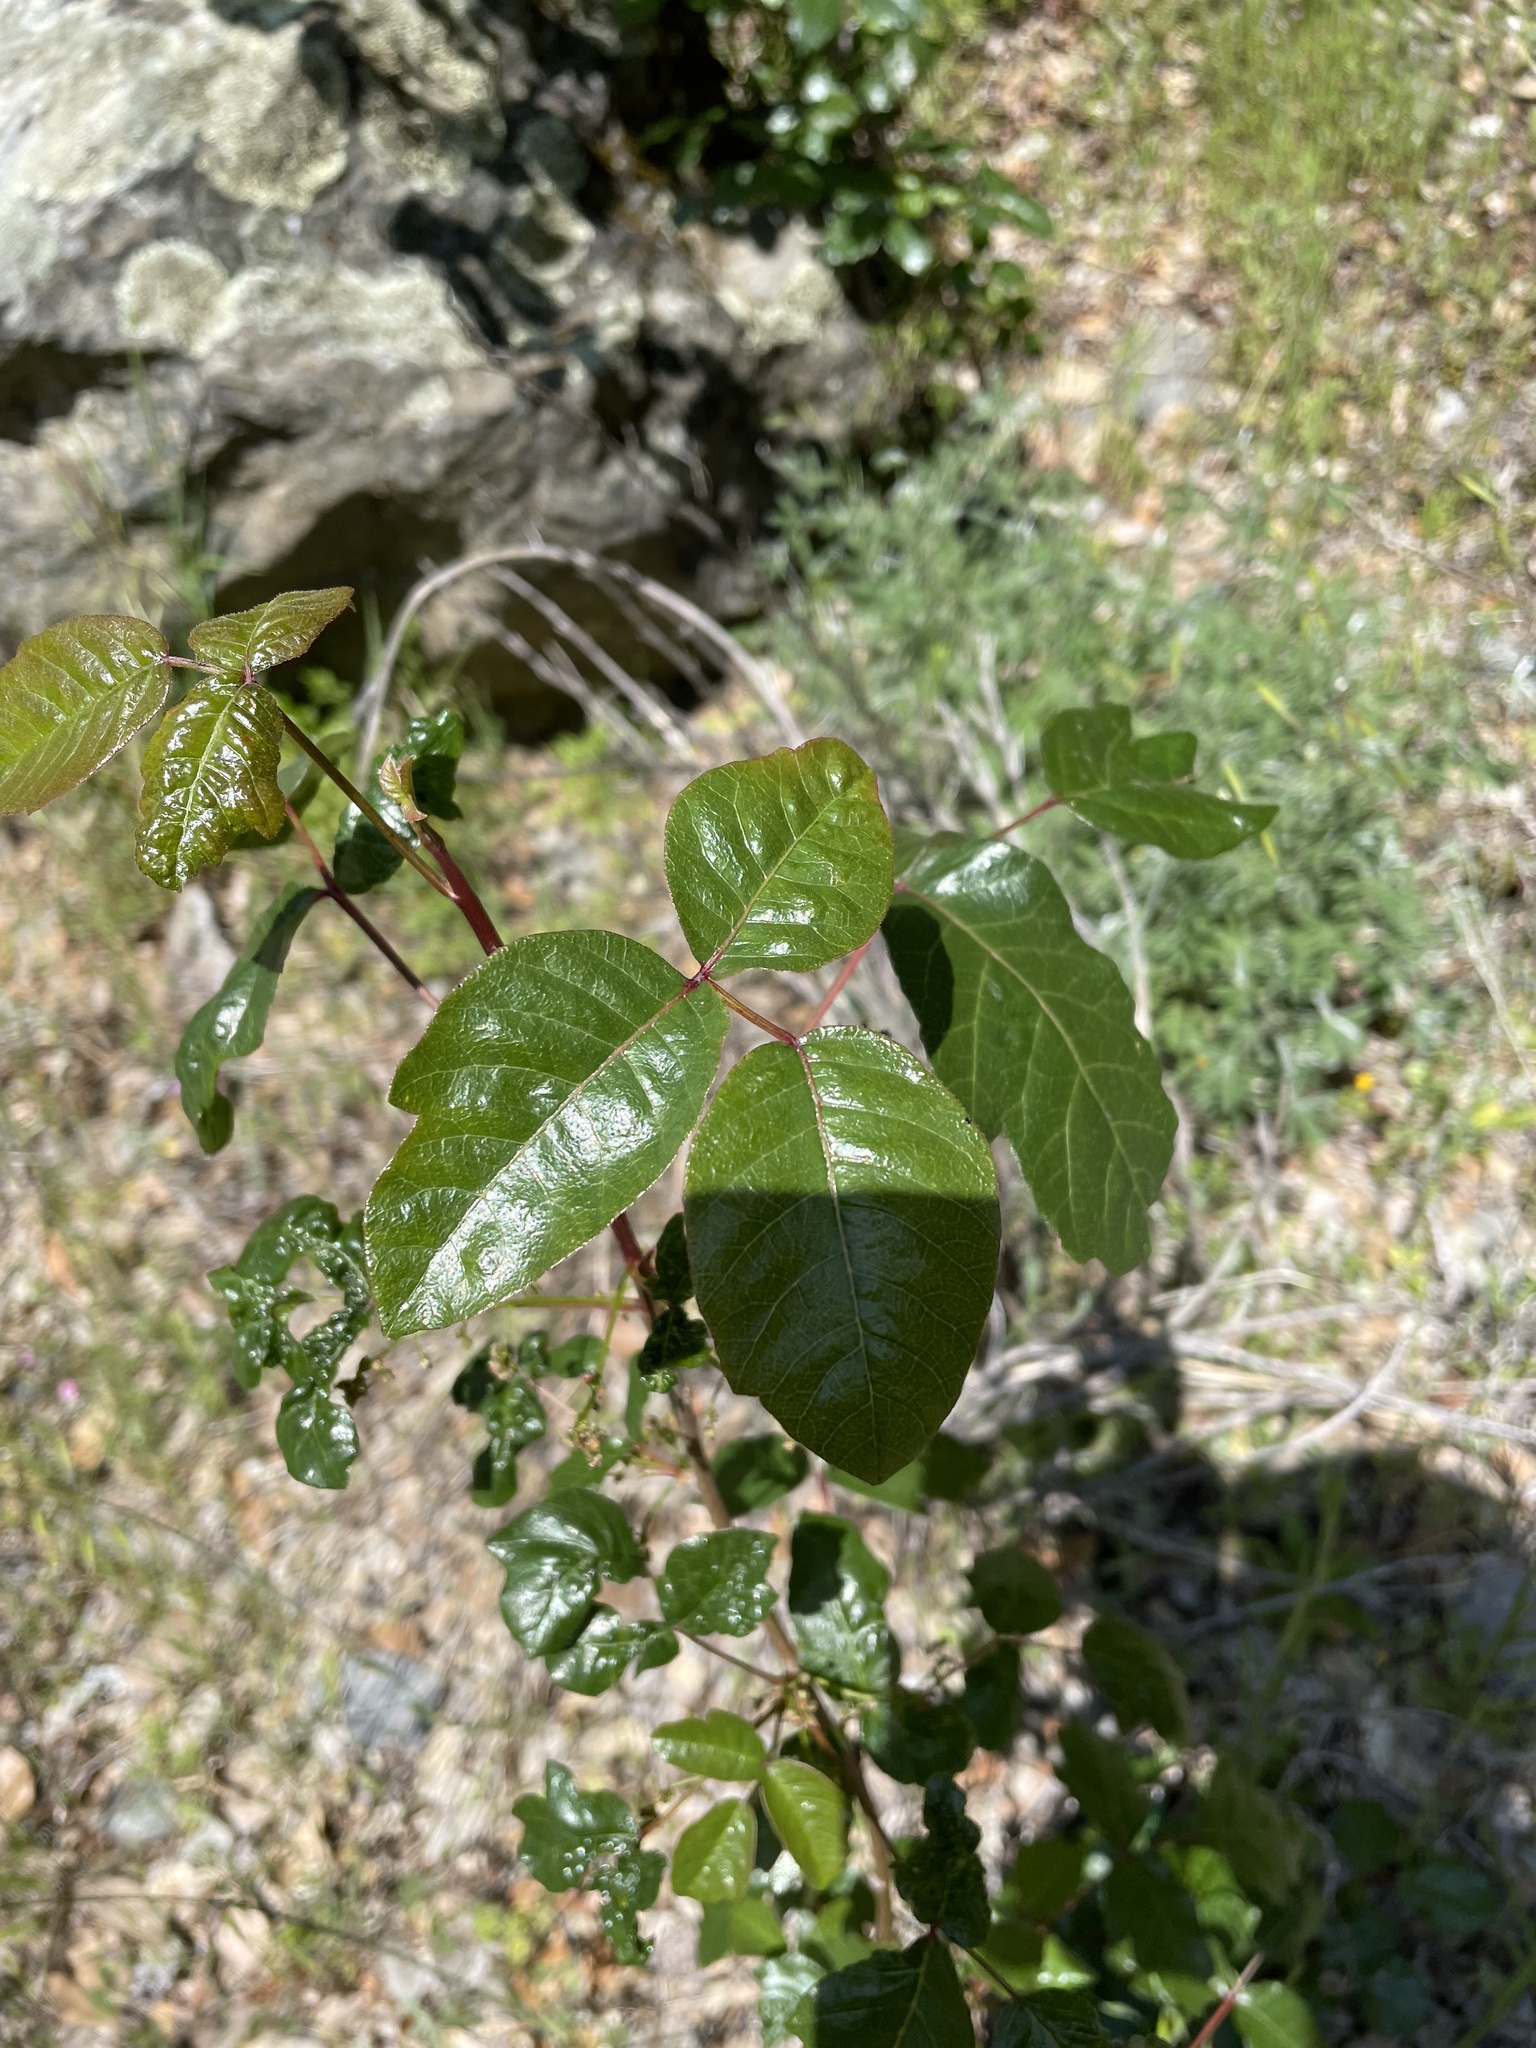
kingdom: Plantae
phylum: Tracheophyta
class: Magnoliopsida
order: Sapindales
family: Anacardiaceae
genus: Toxicodendron
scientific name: Toxicodendron diversilobum
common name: Pacific poison-oak
